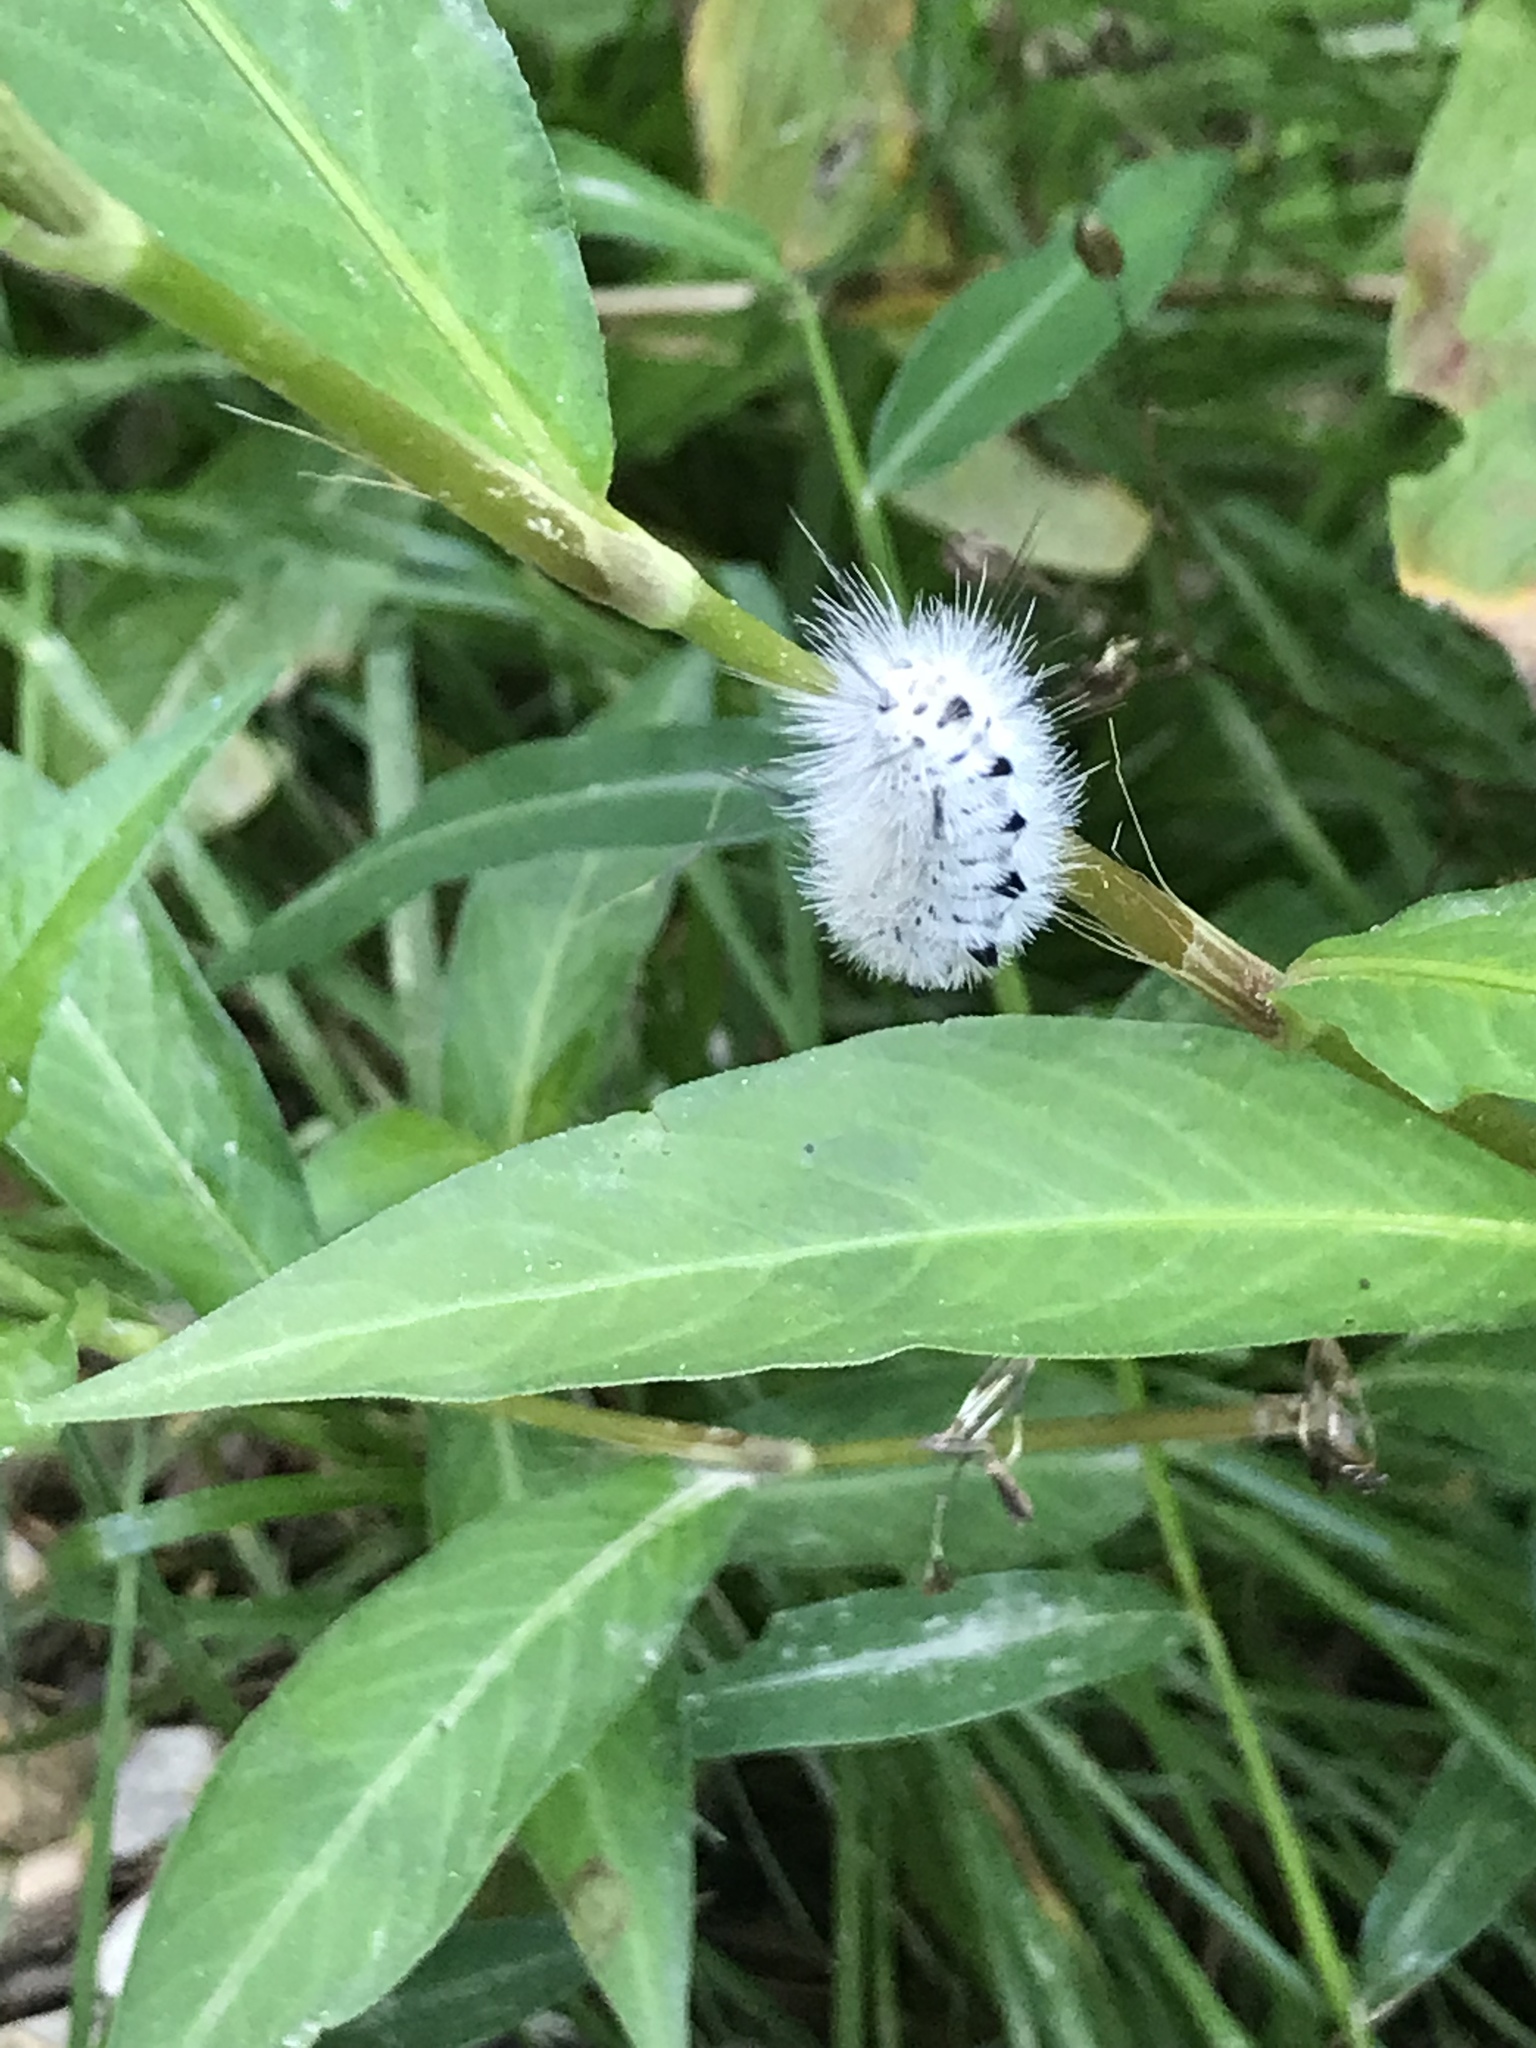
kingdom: Animalia
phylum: Arthropoda
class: Insecta
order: Lepidoptera
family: Erebidae
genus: Lophocampa
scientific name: Lophocampa caryae
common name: Hickory tussock moth
